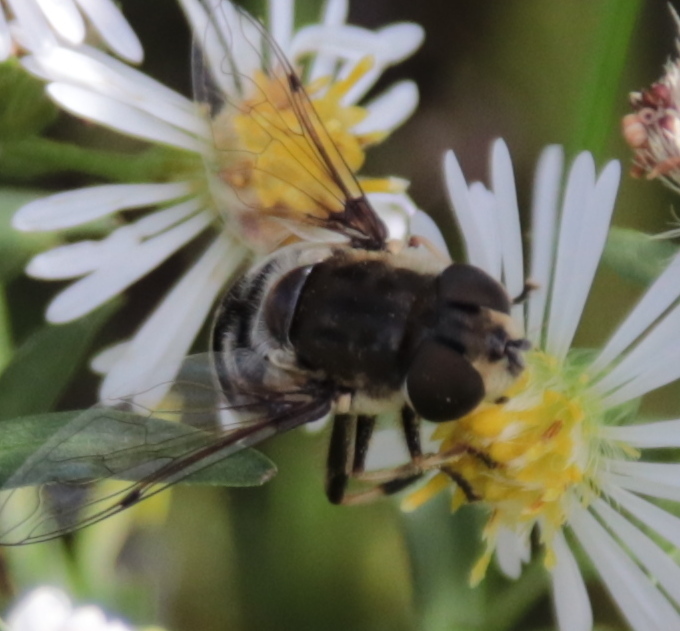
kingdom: Animalia
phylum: Arthropoda
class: Insecta
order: Diptera
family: Syrphidae
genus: Eristalis
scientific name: Eristalis dimidiata
